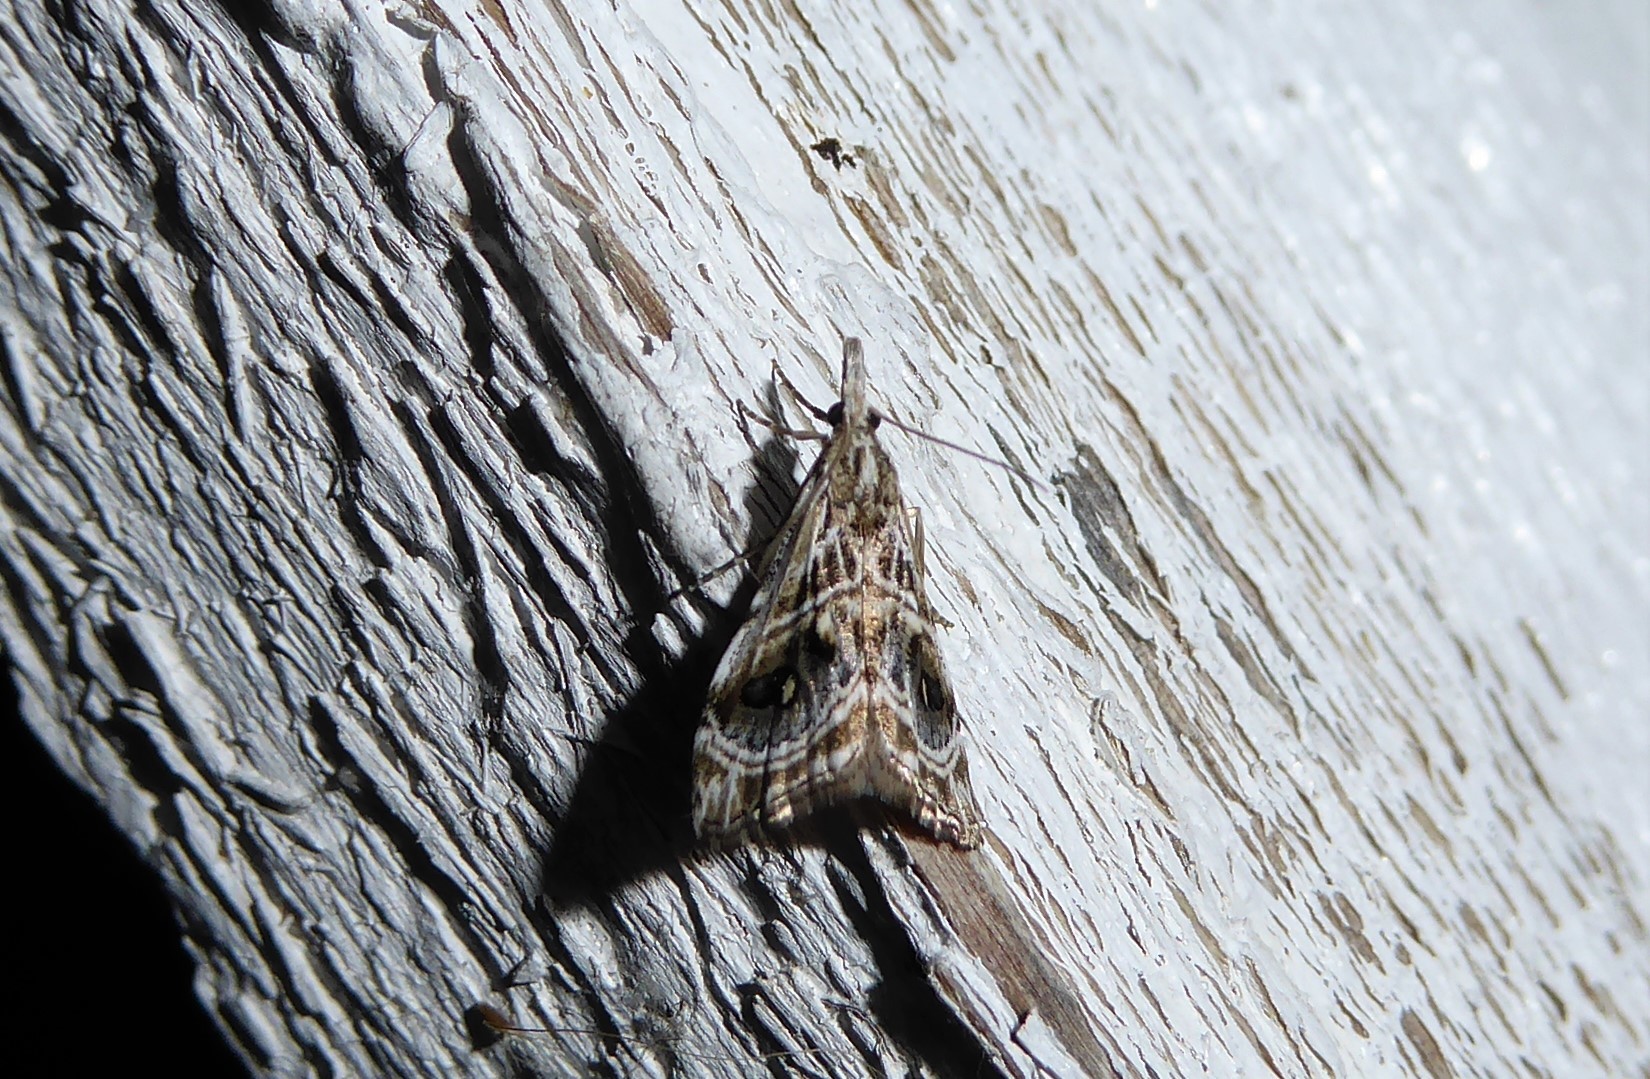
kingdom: Animalia
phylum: Arthropoda
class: Insecta
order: Lepidoptera
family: Crambidae
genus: Gadira
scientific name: Gadira acerella
